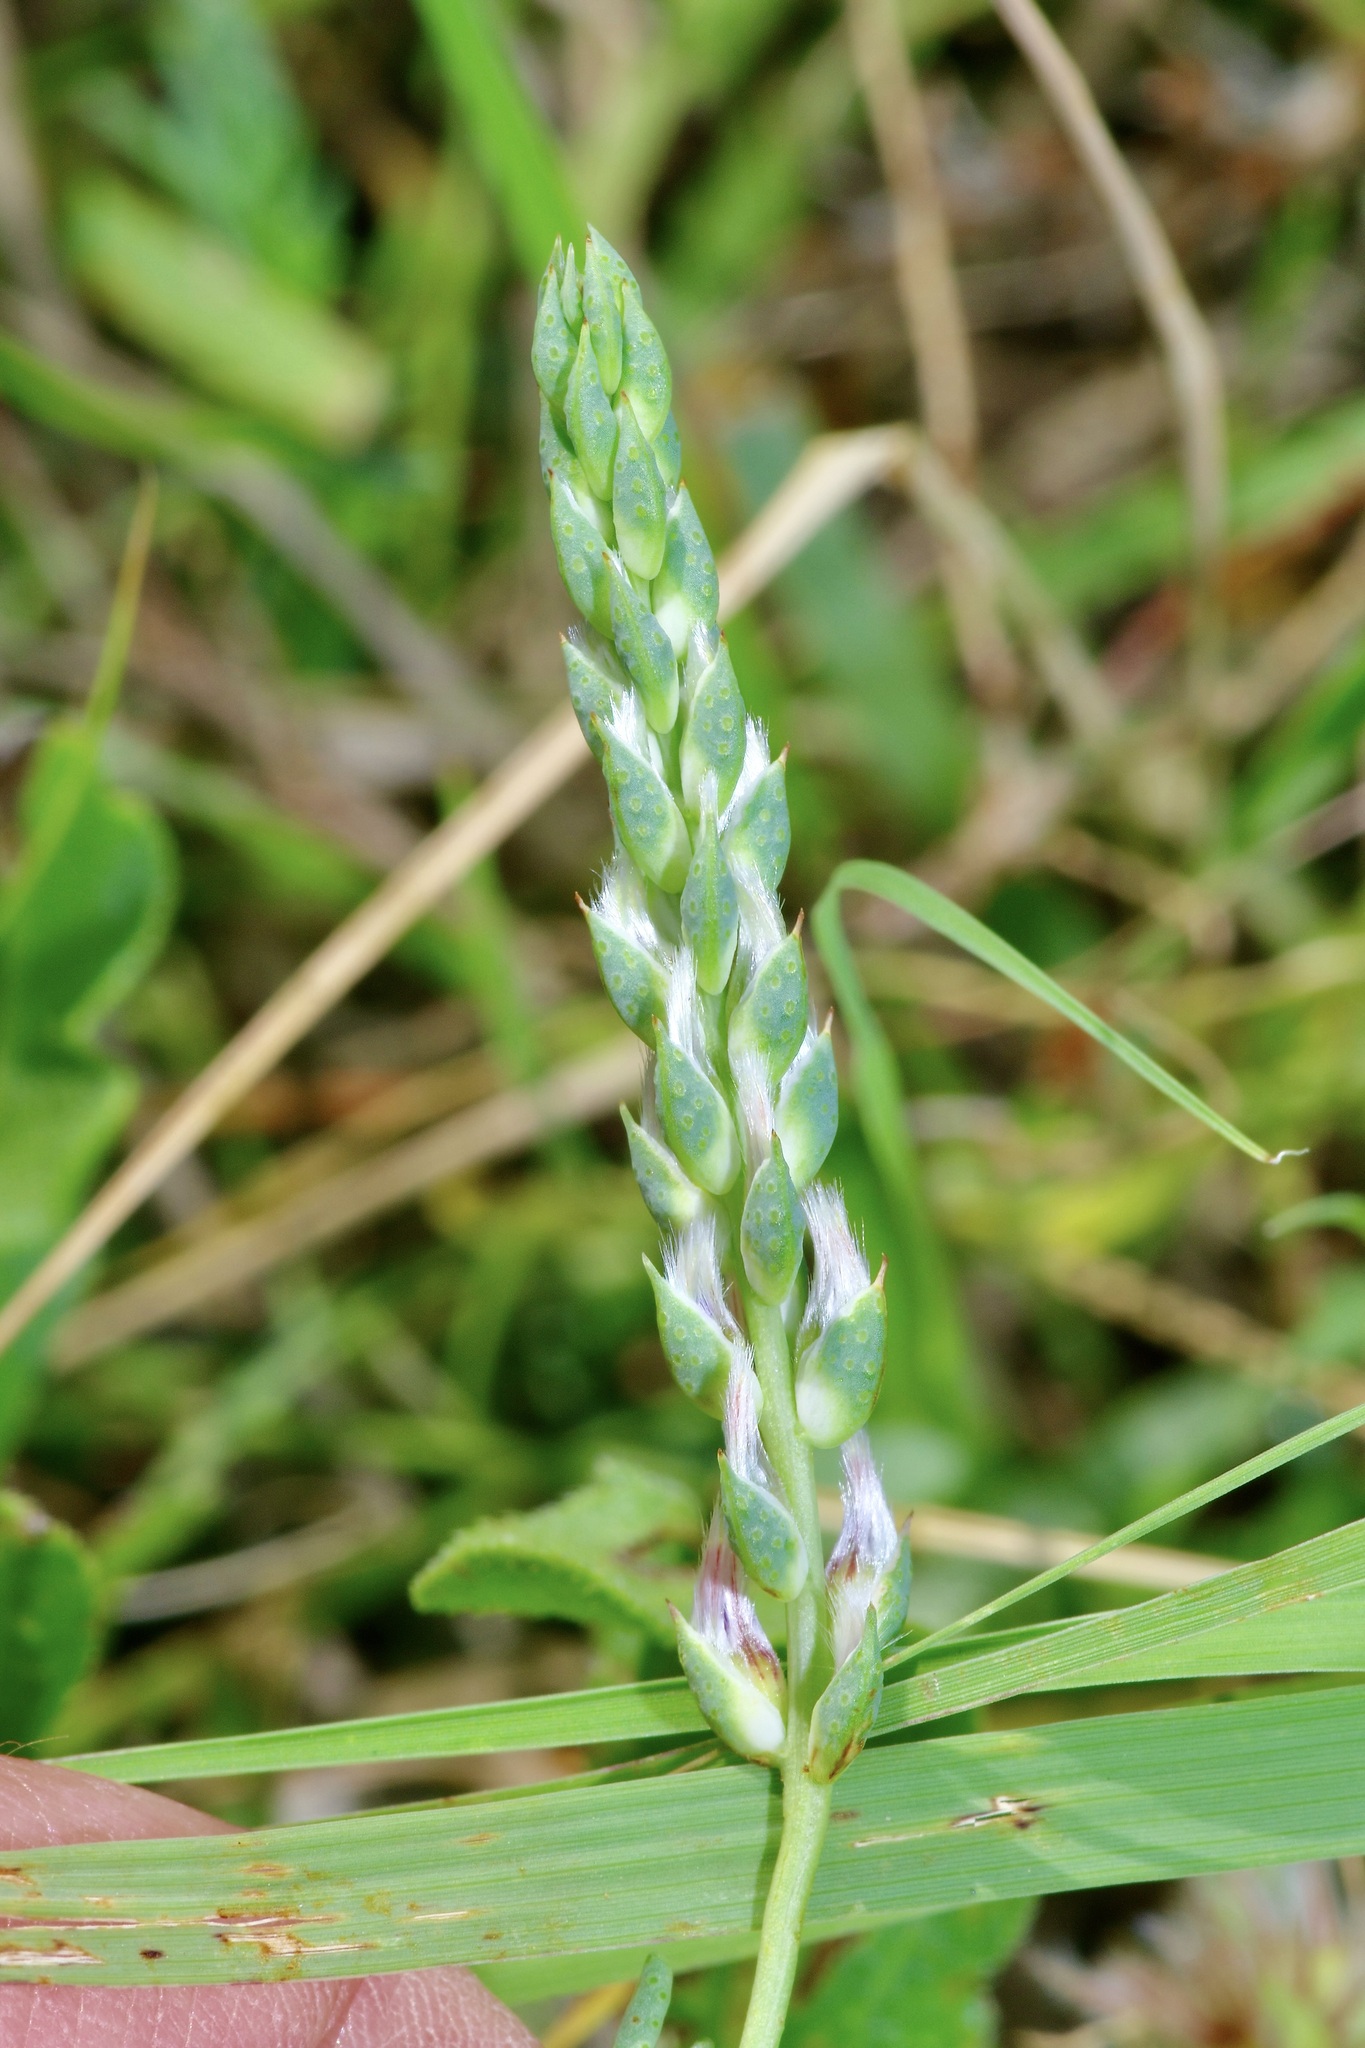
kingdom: Plantae
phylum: Tracheophyta
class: Magnoliopsida
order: Fabales
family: Fabaceae
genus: Dalea
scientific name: Dalea pogonathera
